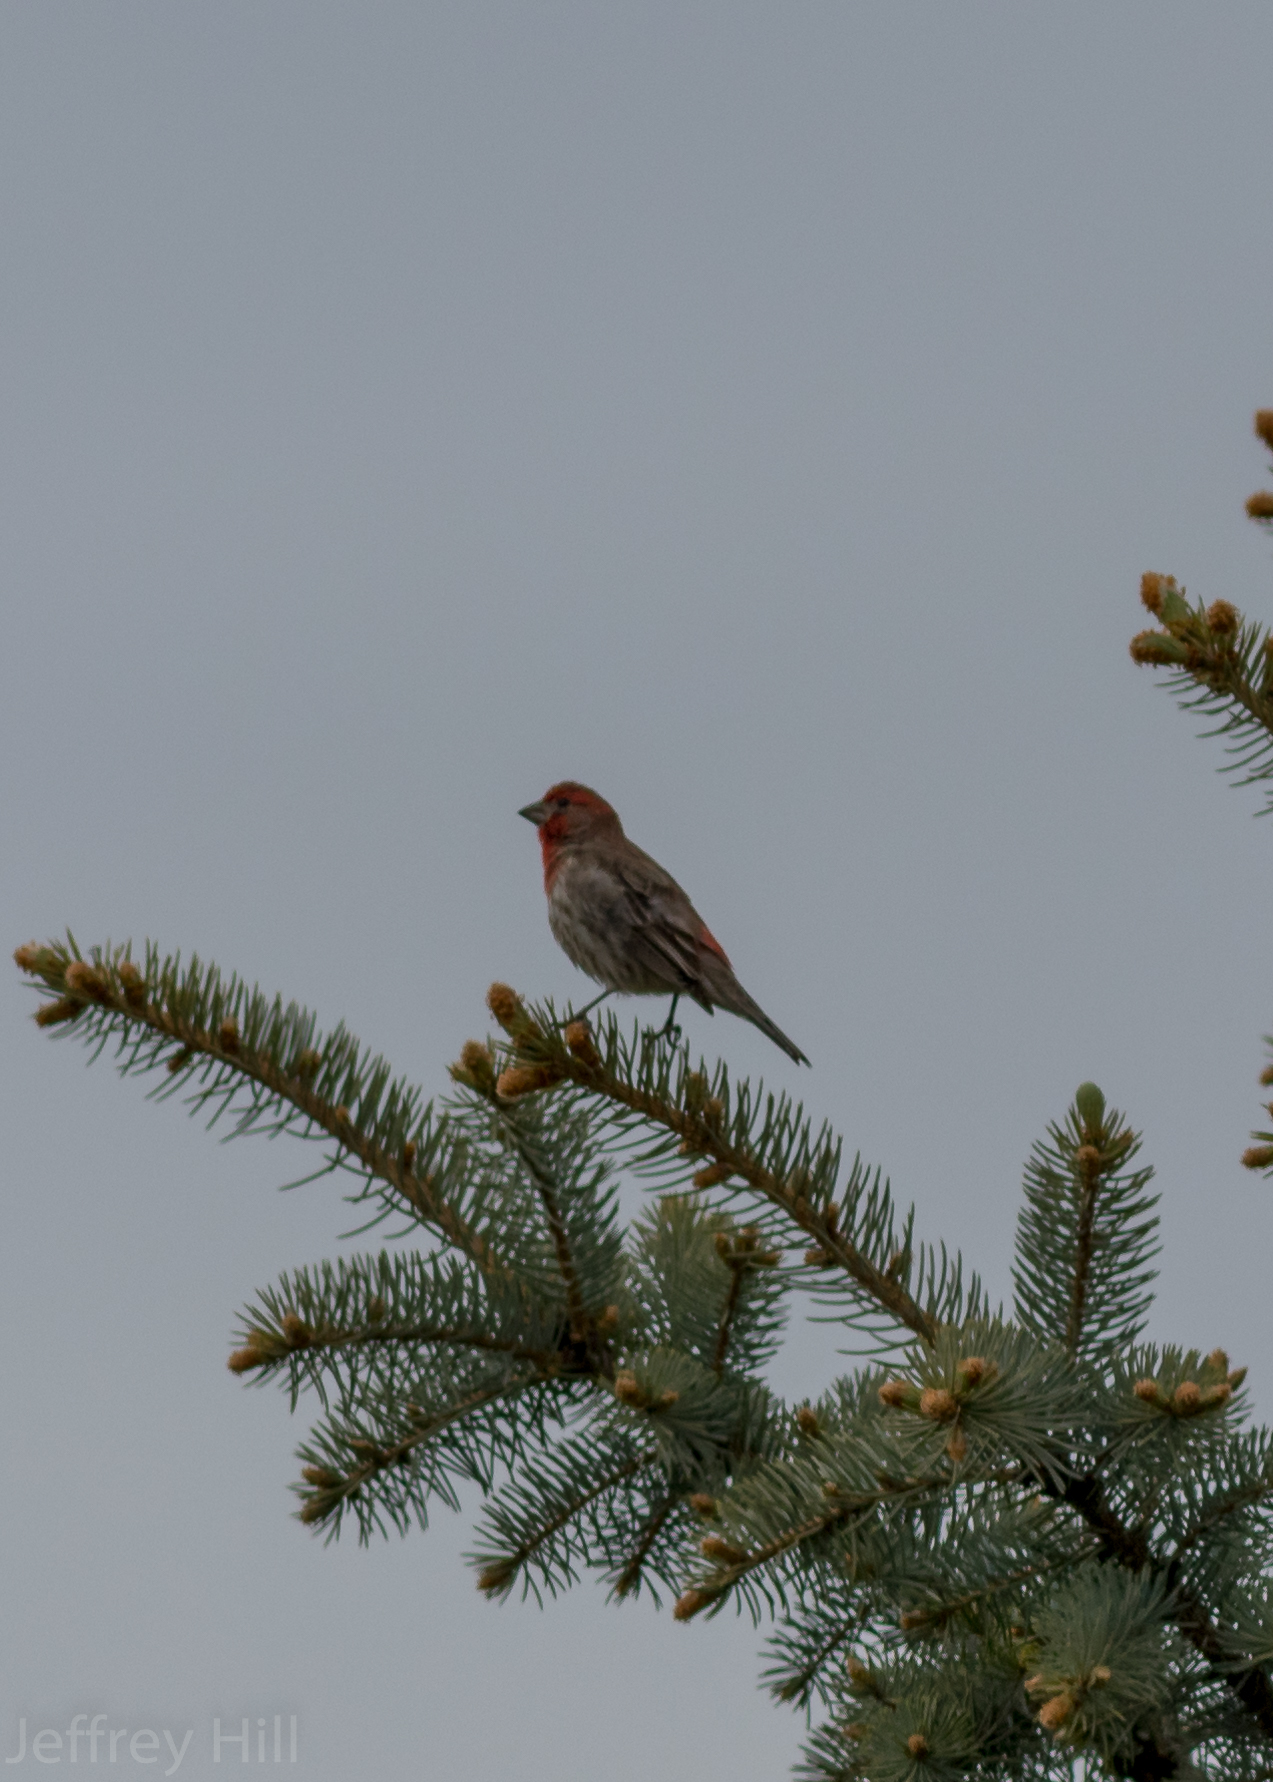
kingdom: Animalia
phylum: Chordata
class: Aves
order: Passeriformes
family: Fringillidae
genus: Haemorhous
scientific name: Haemorhous mexicanus
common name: House finch
